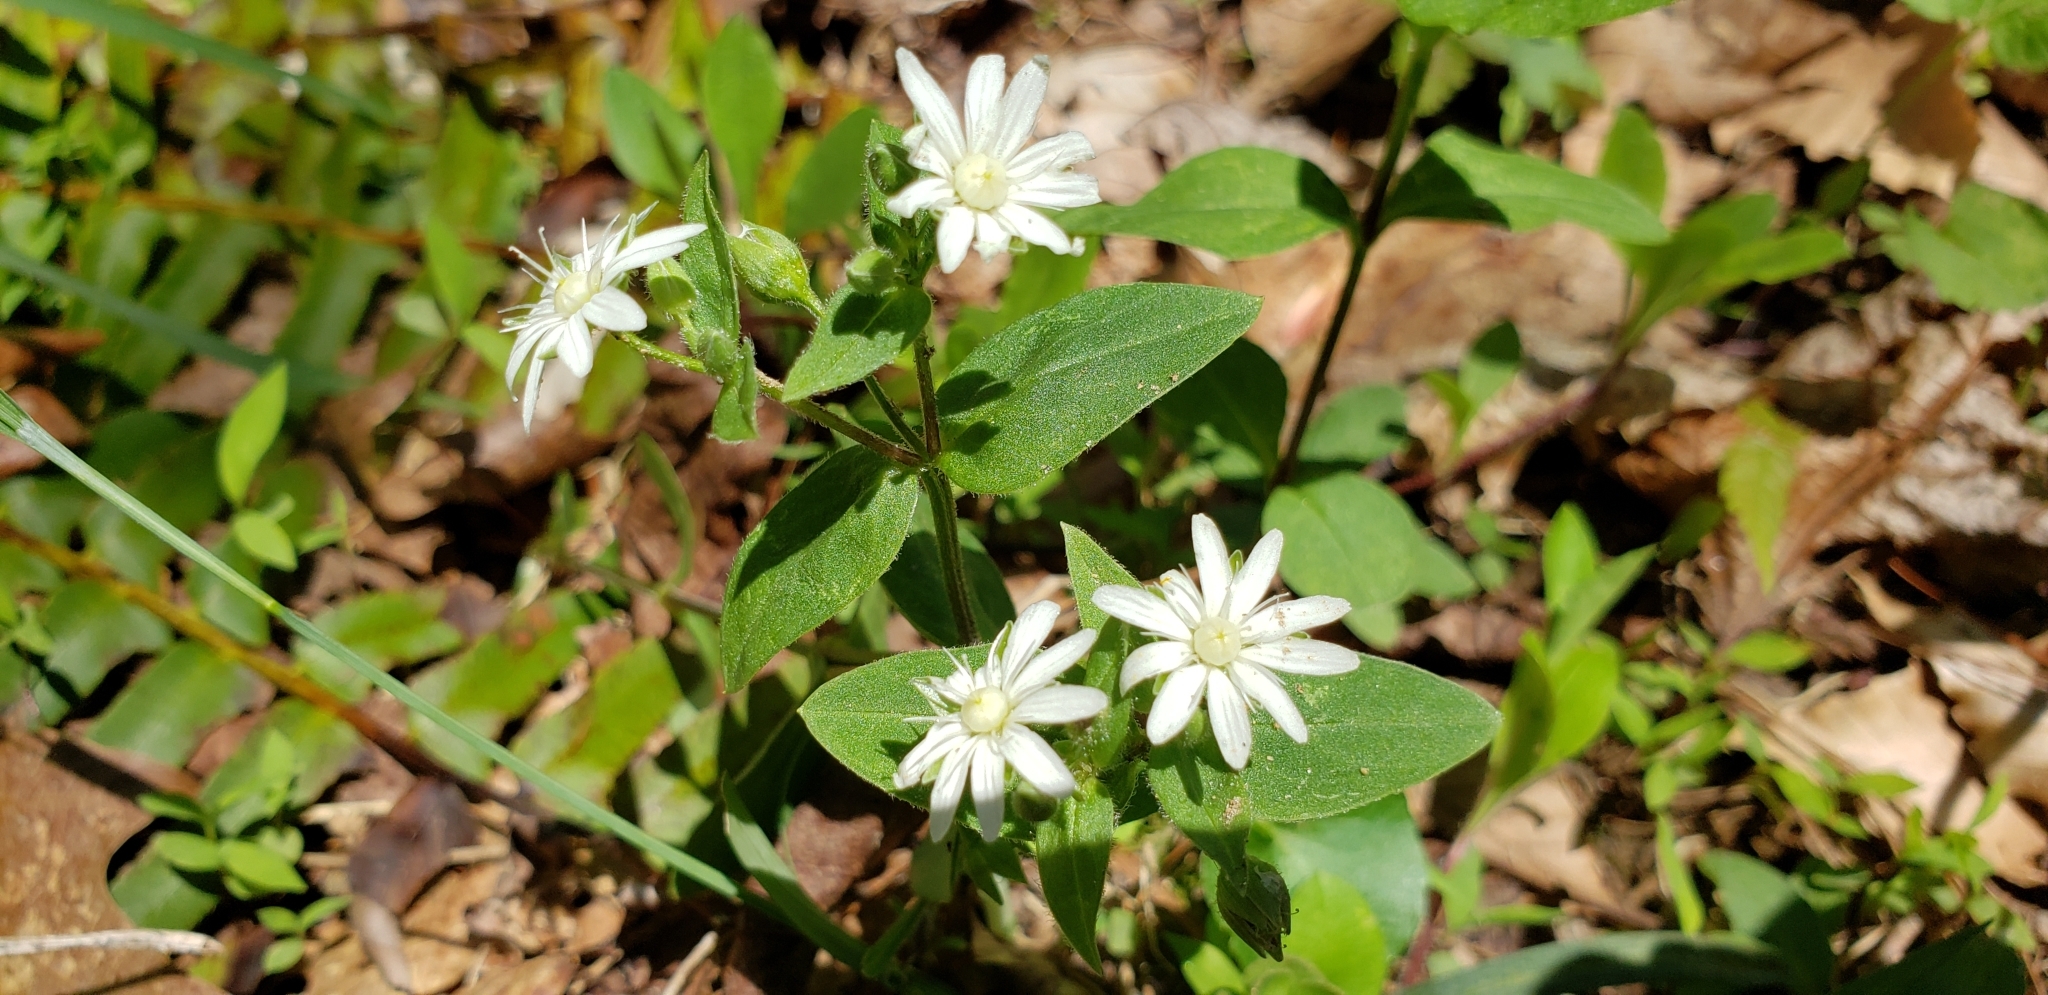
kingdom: Plantae
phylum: Tracheophyta
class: Magnoliopsida
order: Caryophyllales
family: Caryophyllaceae
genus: Stellaria
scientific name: Stellaria pubera
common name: Star chickweed
